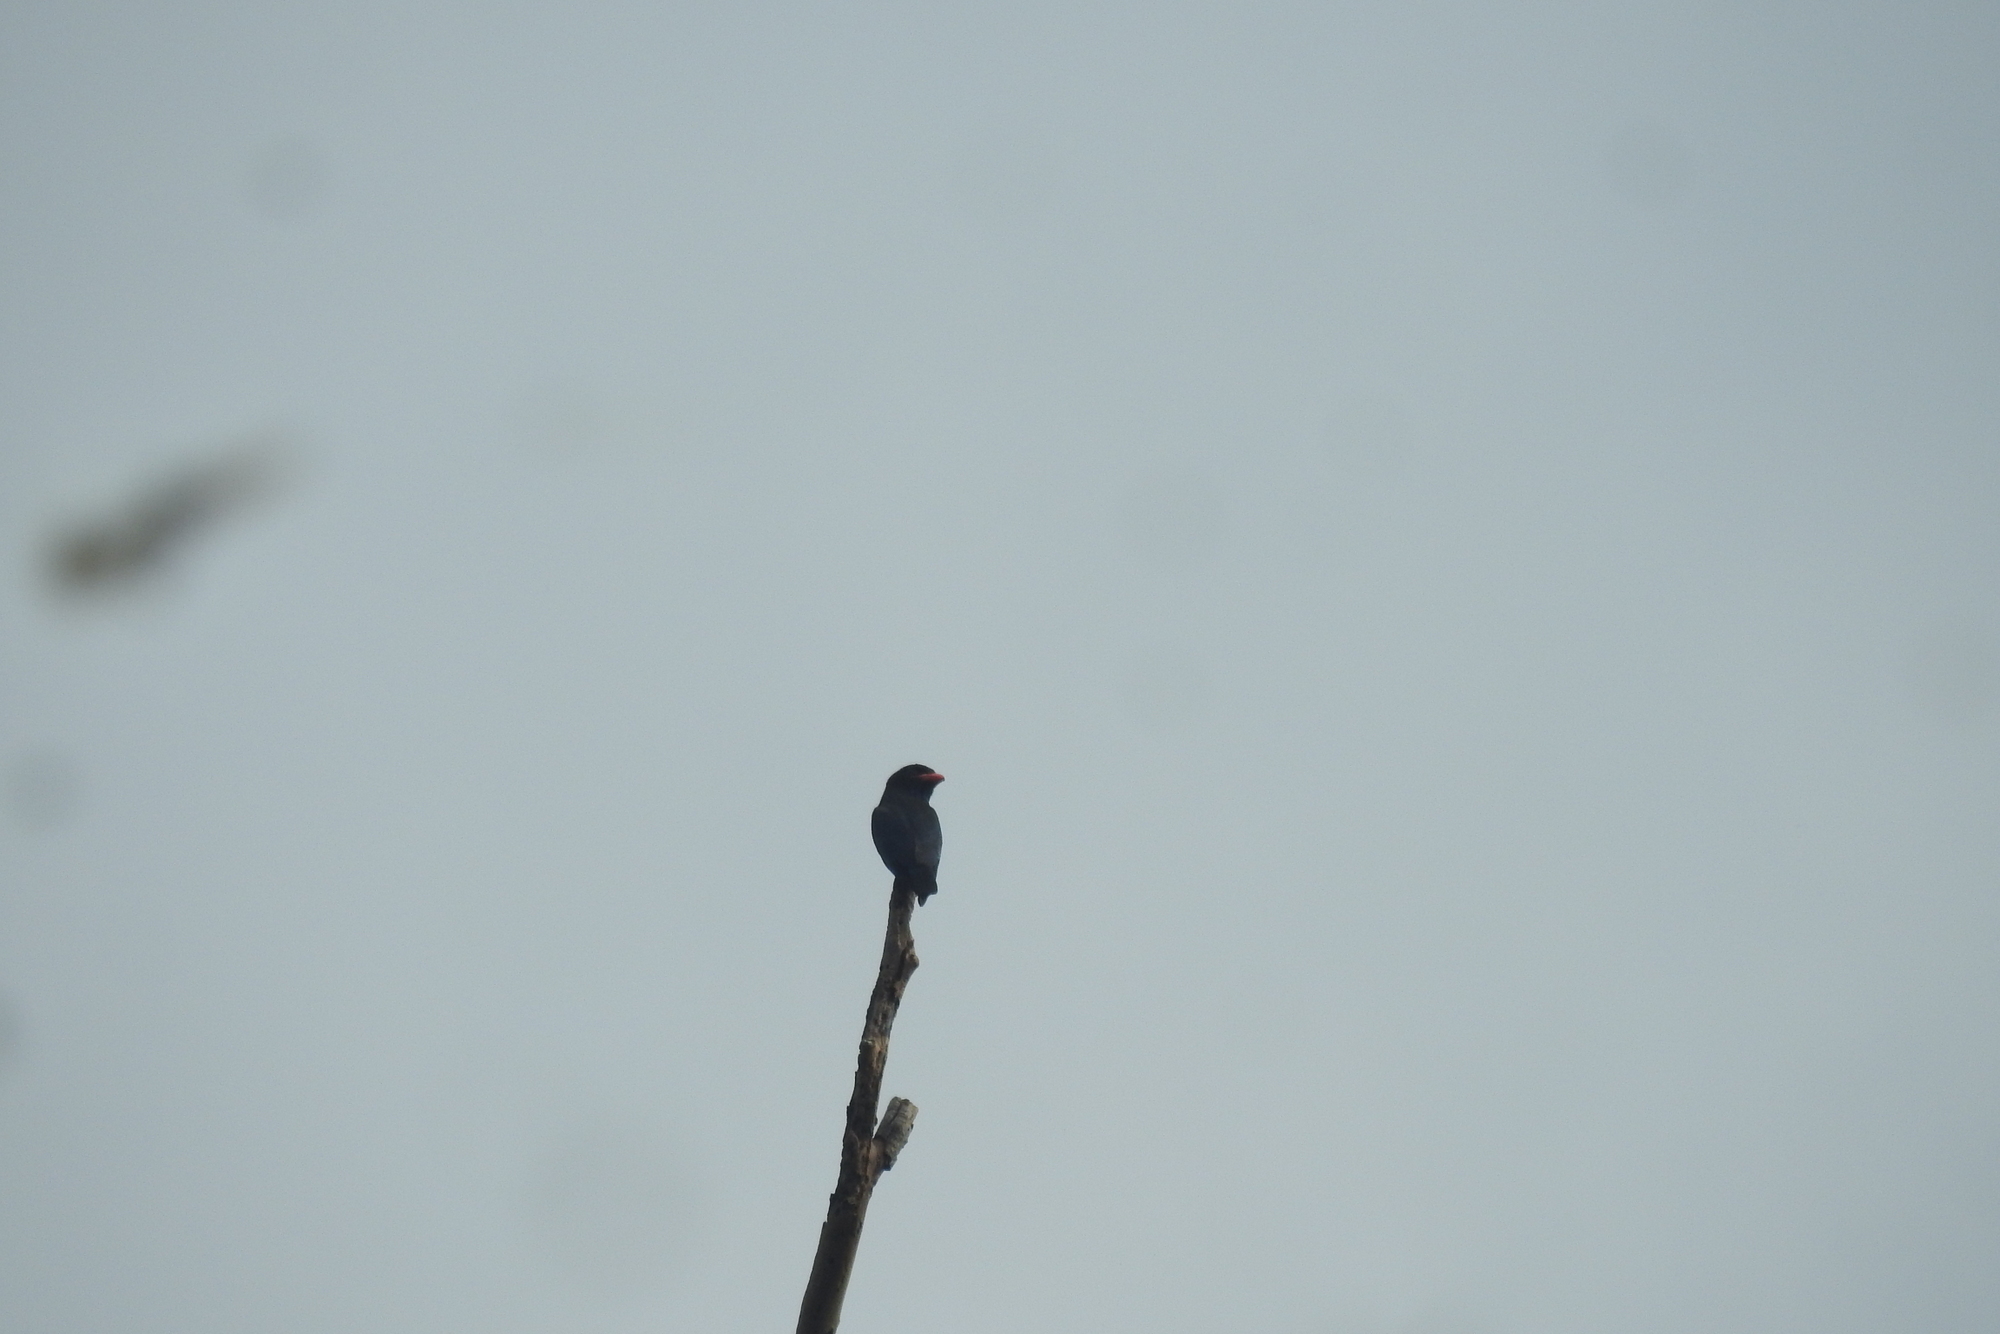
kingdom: Animalia
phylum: Chordata
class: Aves
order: Coraciiformes
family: Coraciidae
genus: Eurystomus
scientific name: Eurystomus orientalis
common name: Oriental dollarbird
